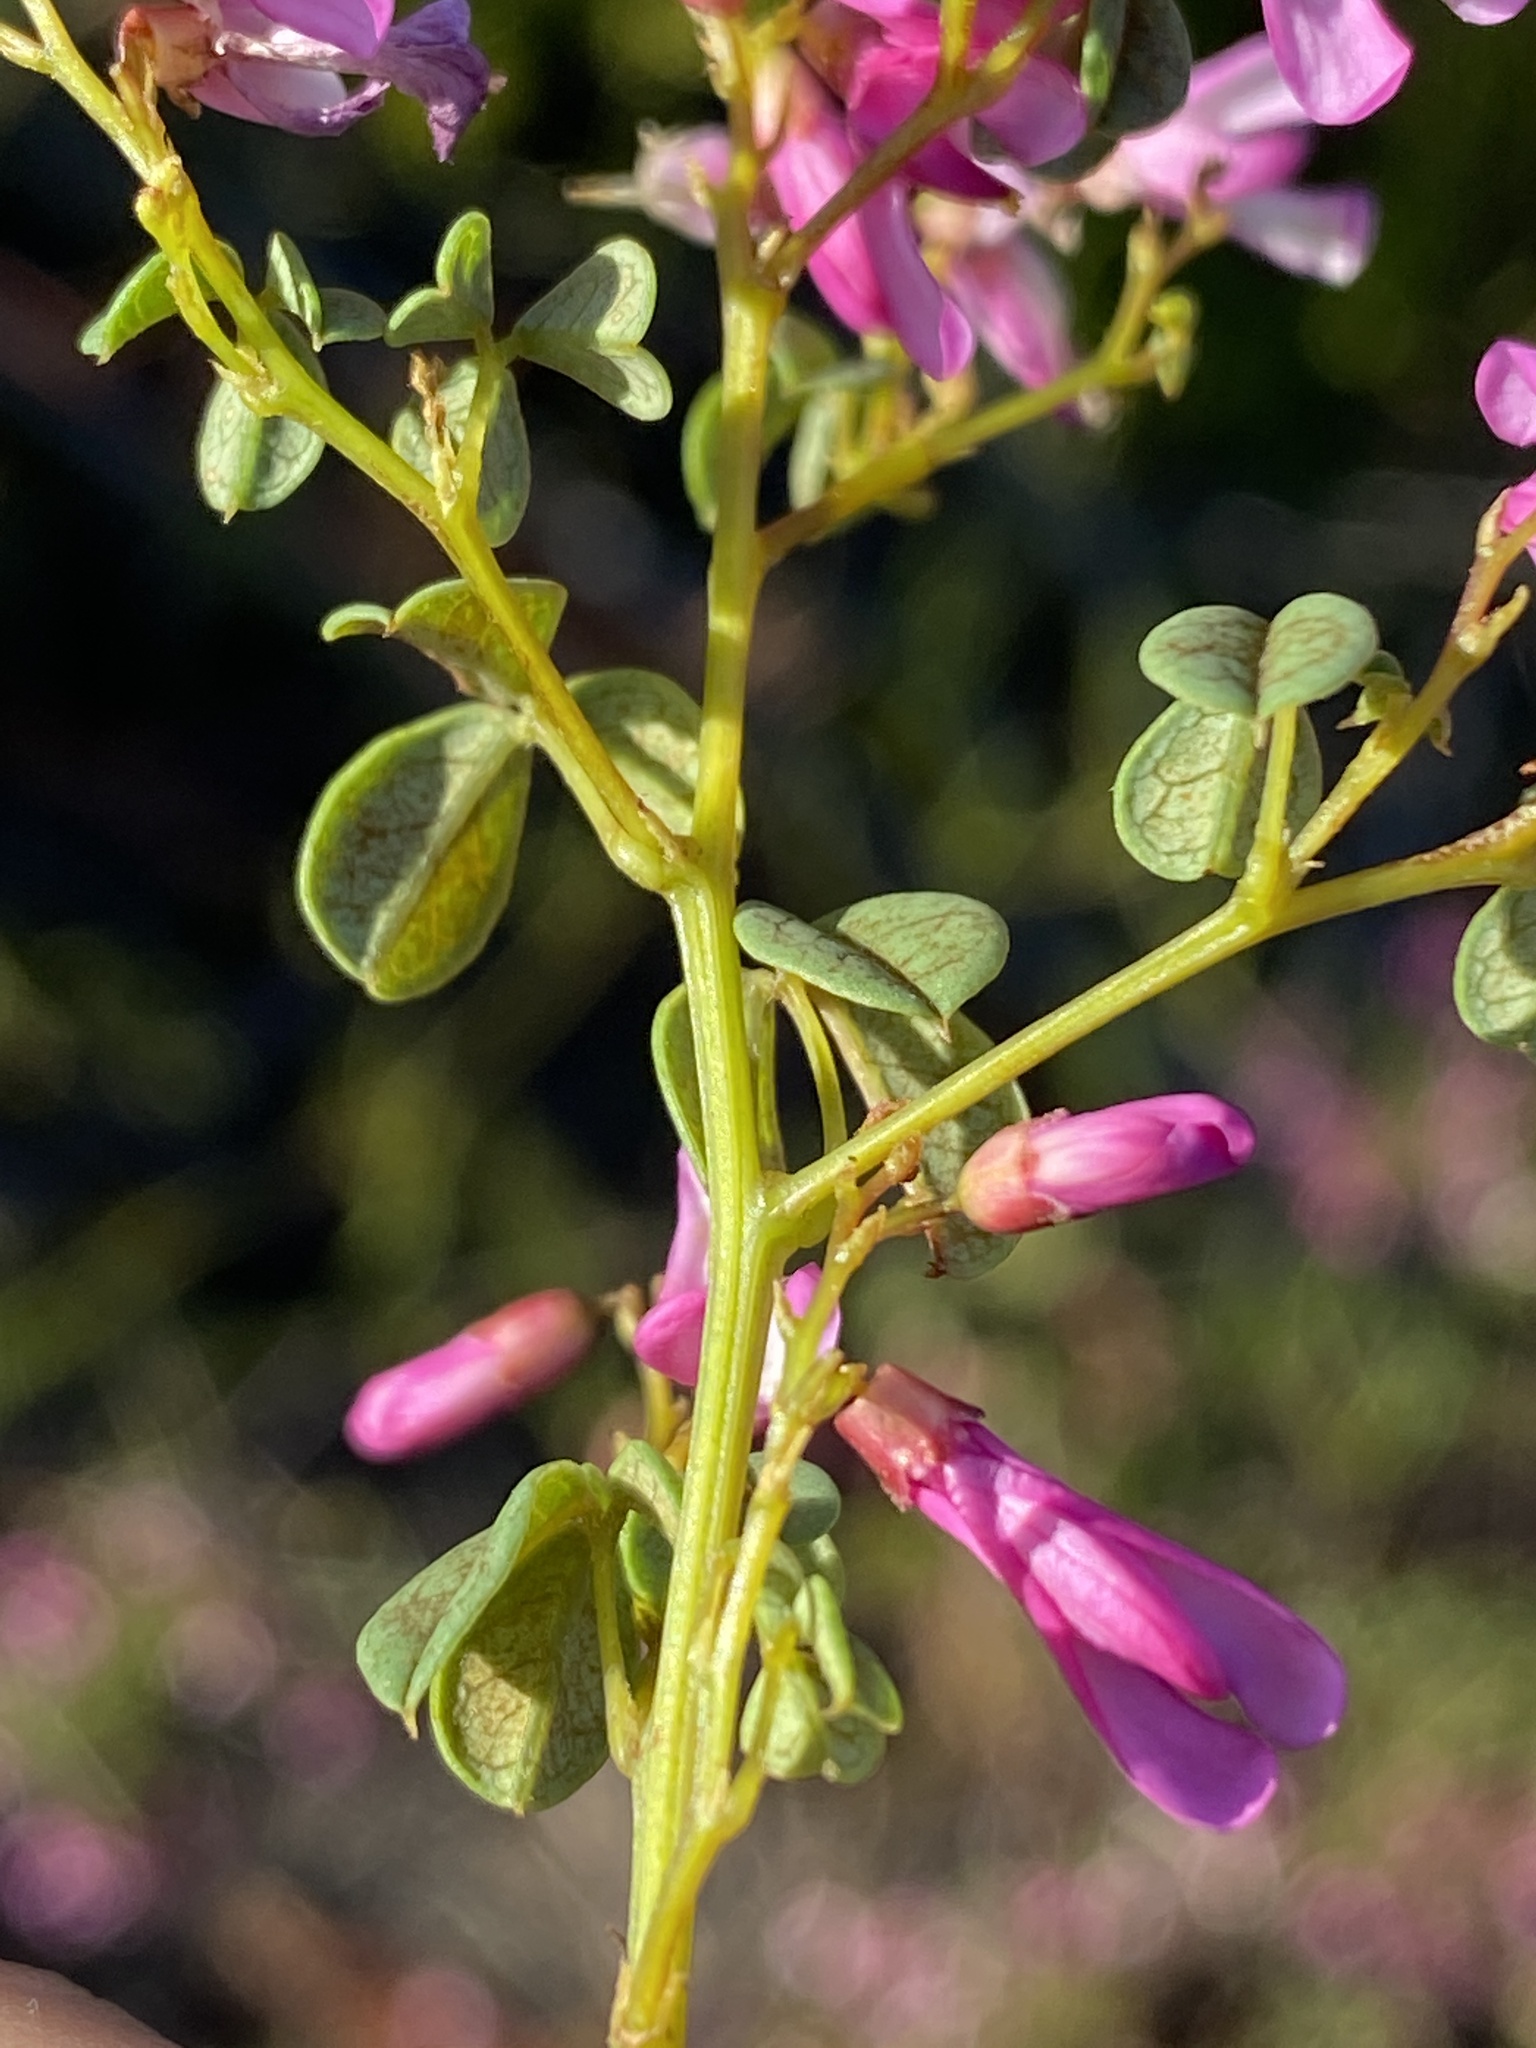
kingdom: Plantae
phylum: Tracheophyta
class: Magnoliopsida
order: Fabales
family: Fabaceae
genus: Hypocalyptus
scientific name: Hypocalyptus oxalidifolius
